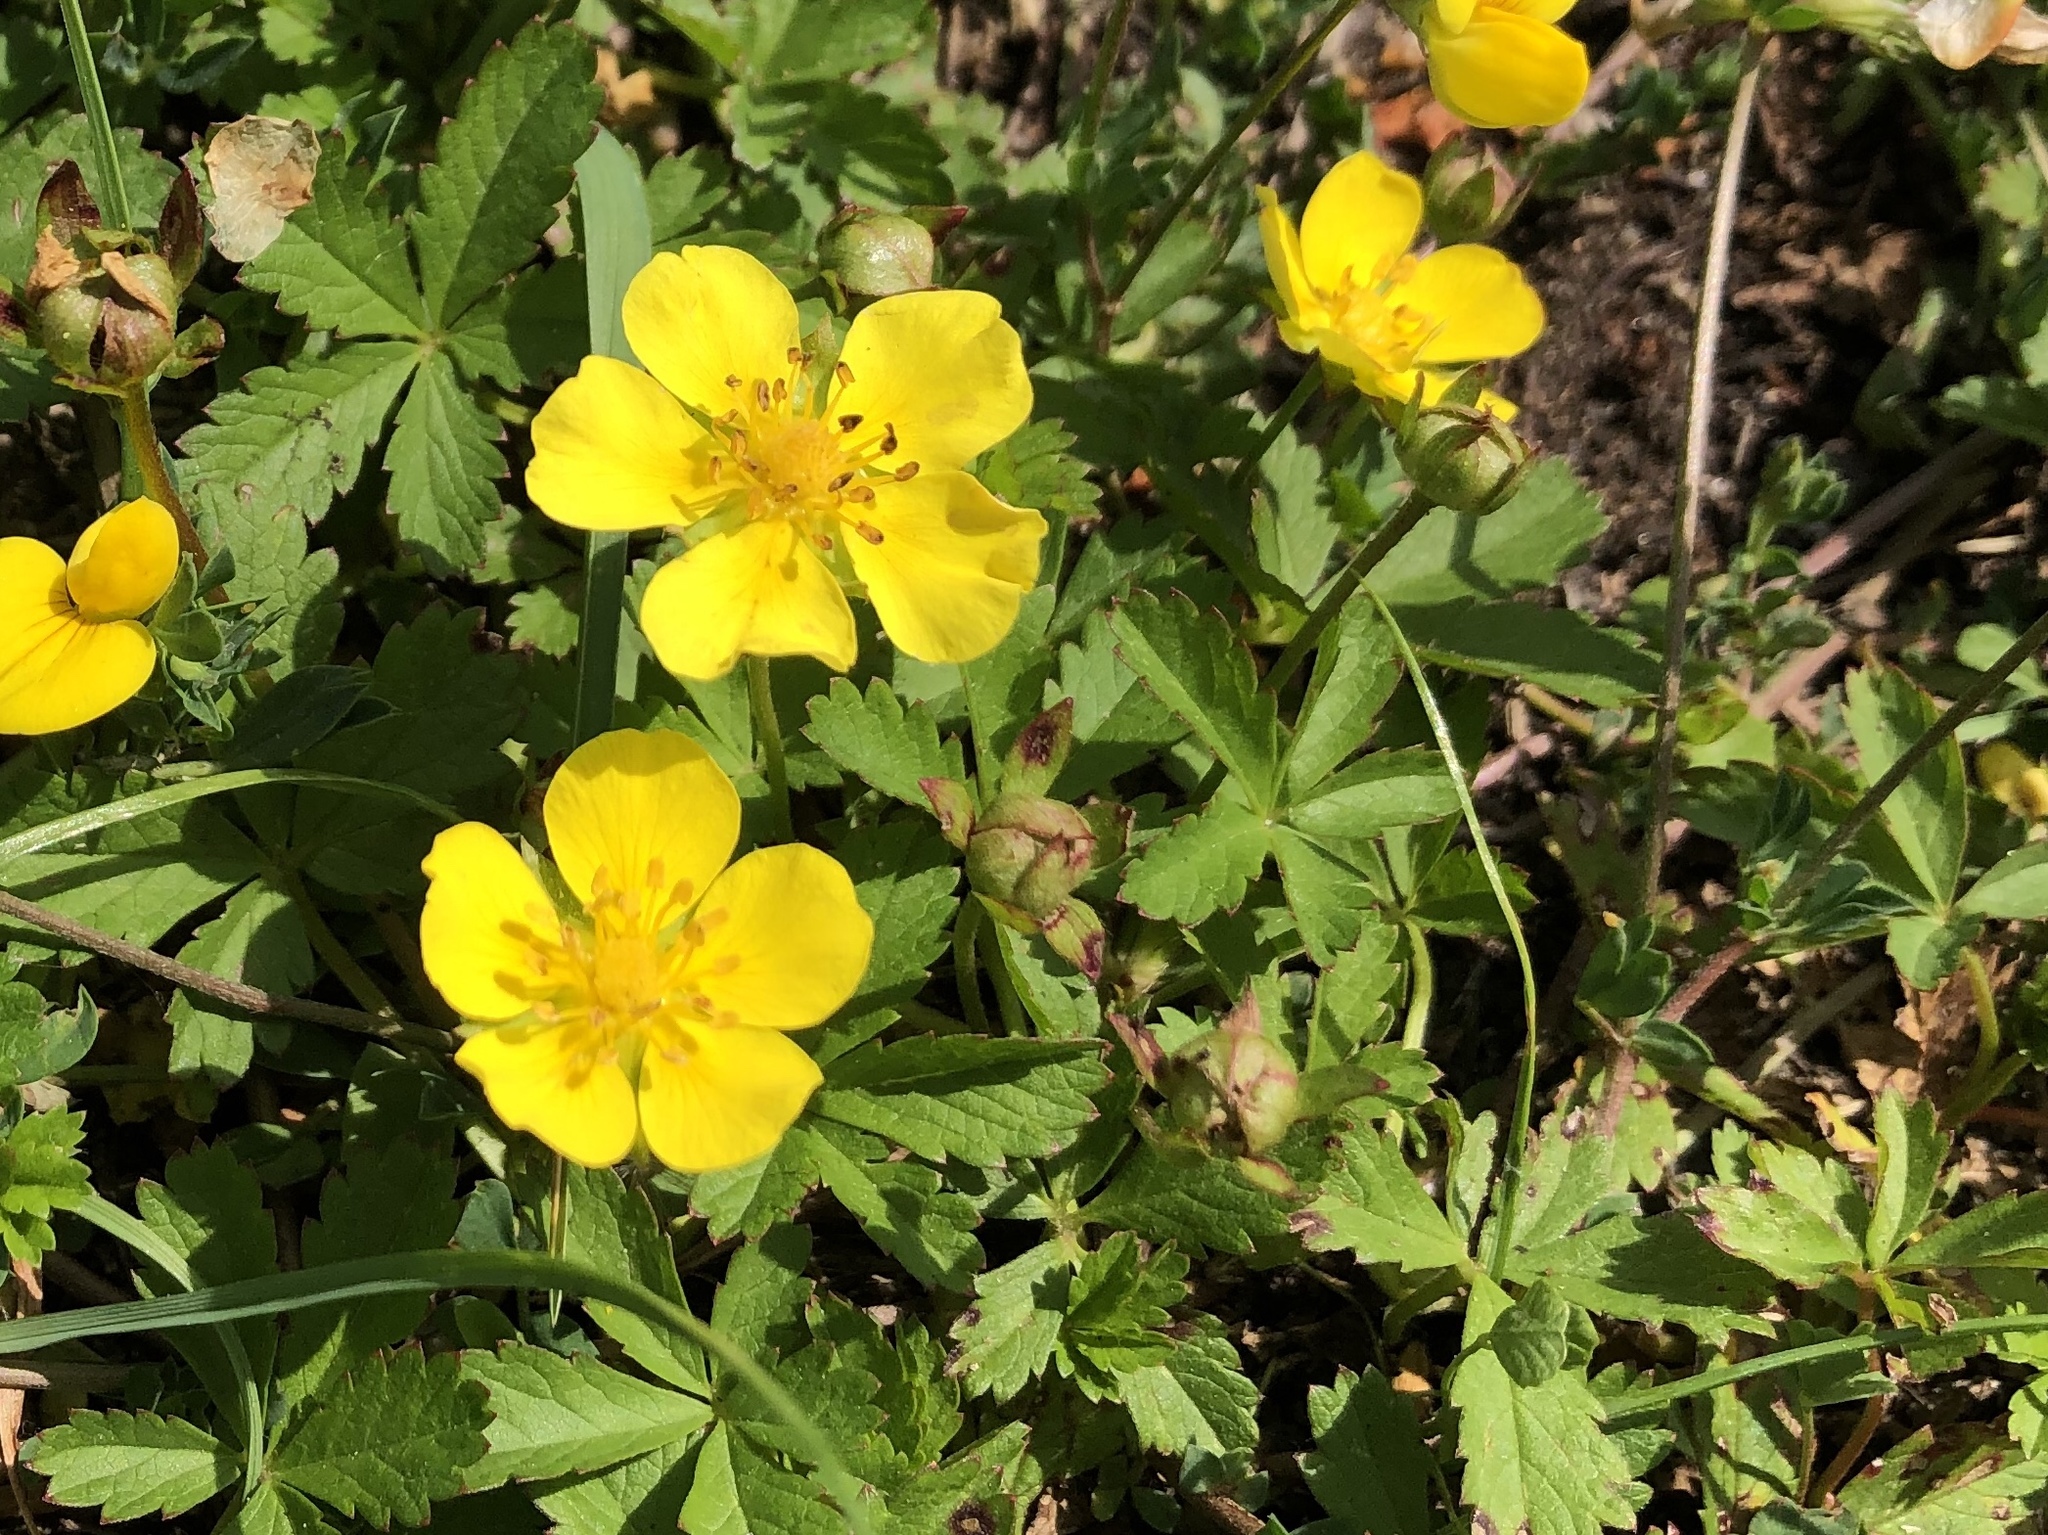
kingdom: Plantae
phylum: Tracheophyta
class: Magnoliopsida
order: Rosales
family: Rosaceae
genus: Potentilla
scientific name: Potentilla reptans
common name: Creeping cinquefoil
